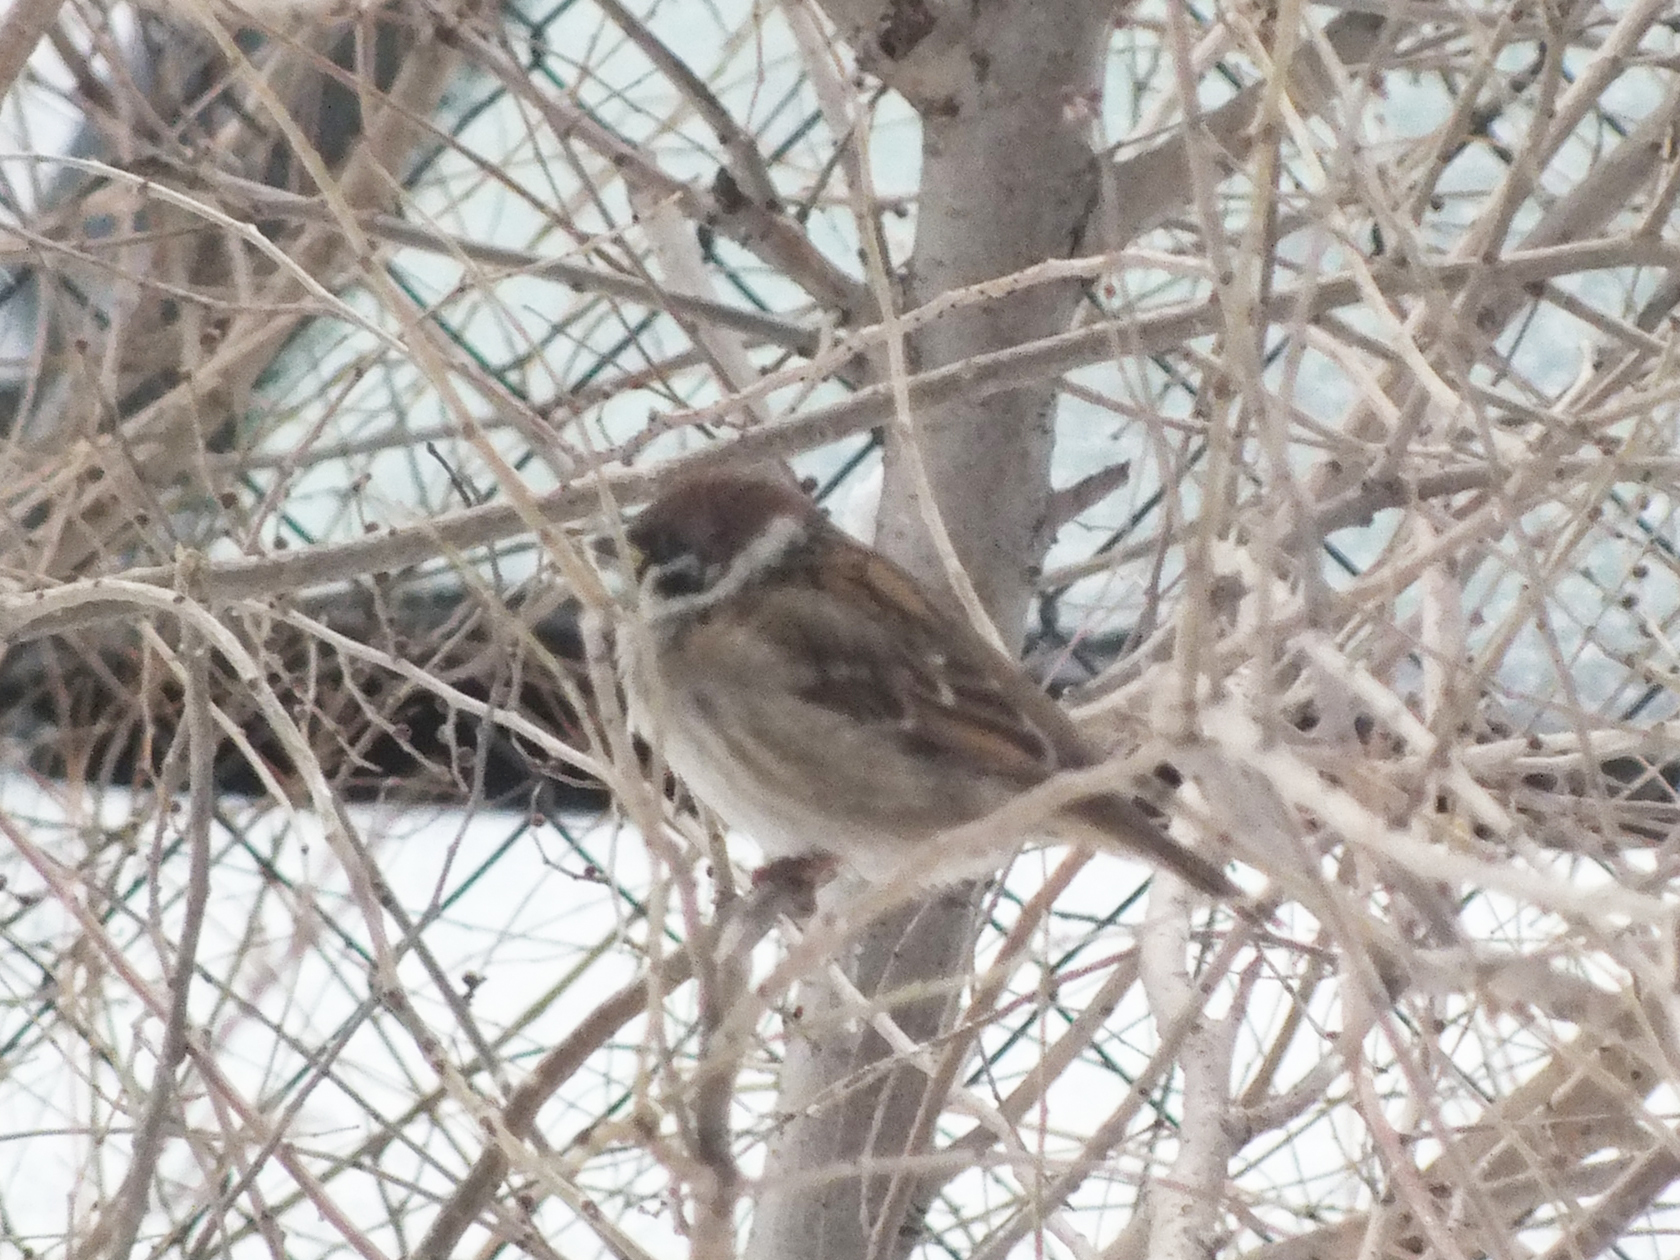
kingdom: Animalia
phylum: Chordata
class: Aves
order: Passeriformes
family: Passeridae
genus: Passer
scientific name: Passer montanus
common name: Eurasian tree sparrow
